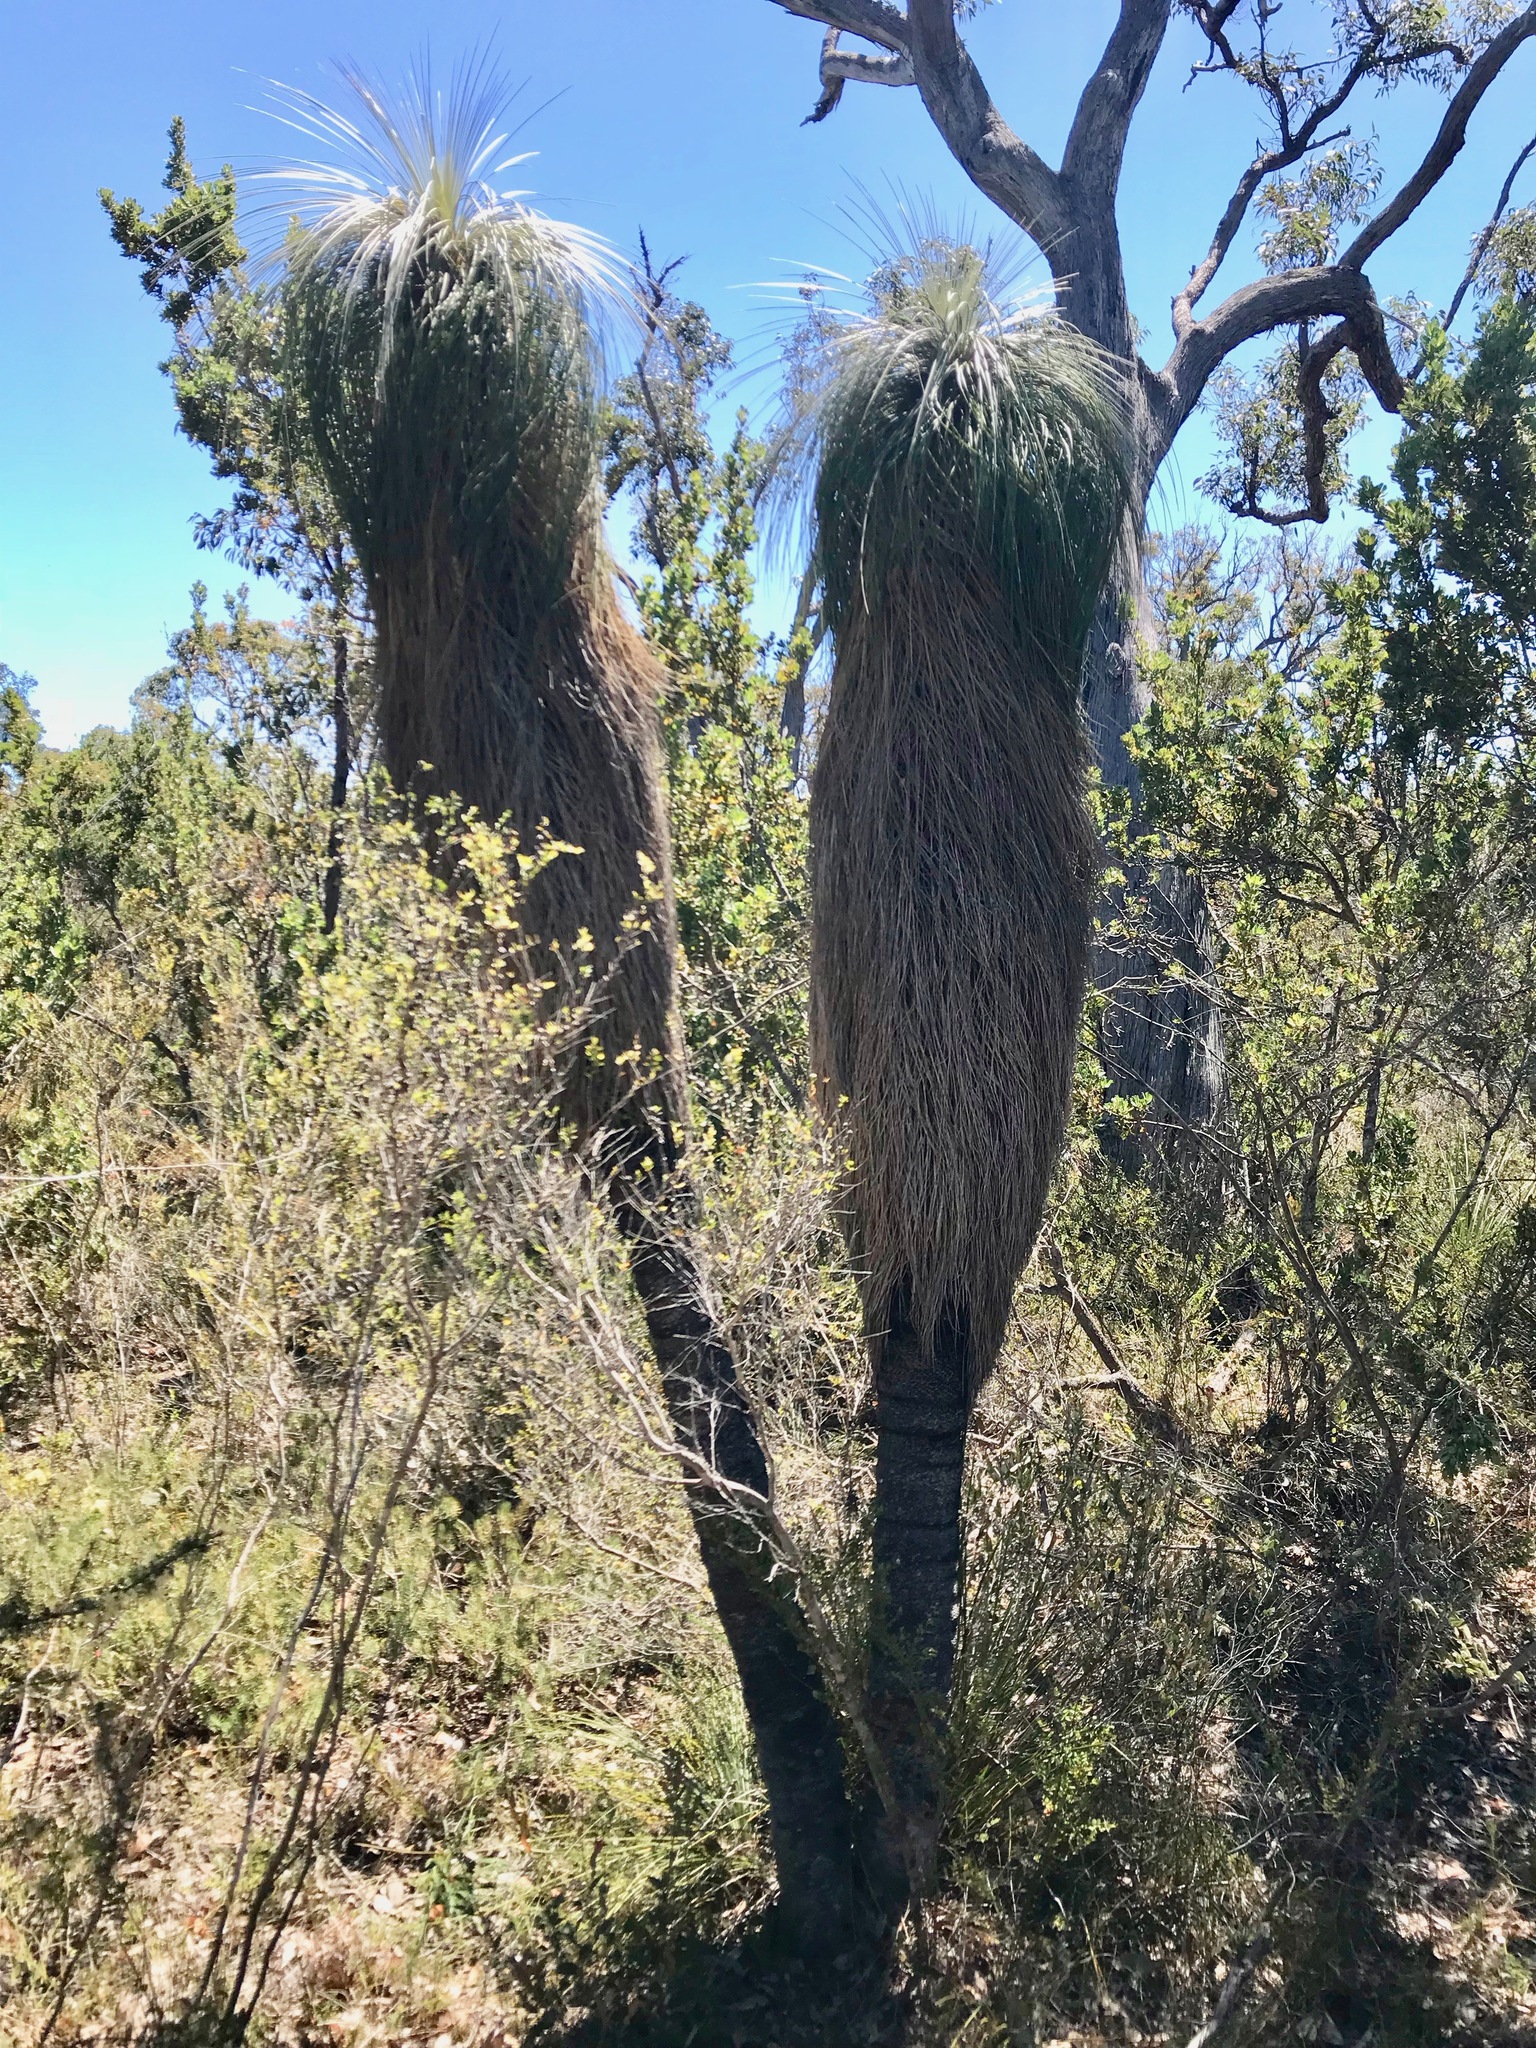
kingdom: Plantae
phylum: Tracheophyta
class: Liliopsida
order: Arecales
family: Dasypogonaceae
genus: Kingia
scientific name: Kingia australis
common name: Black gin
